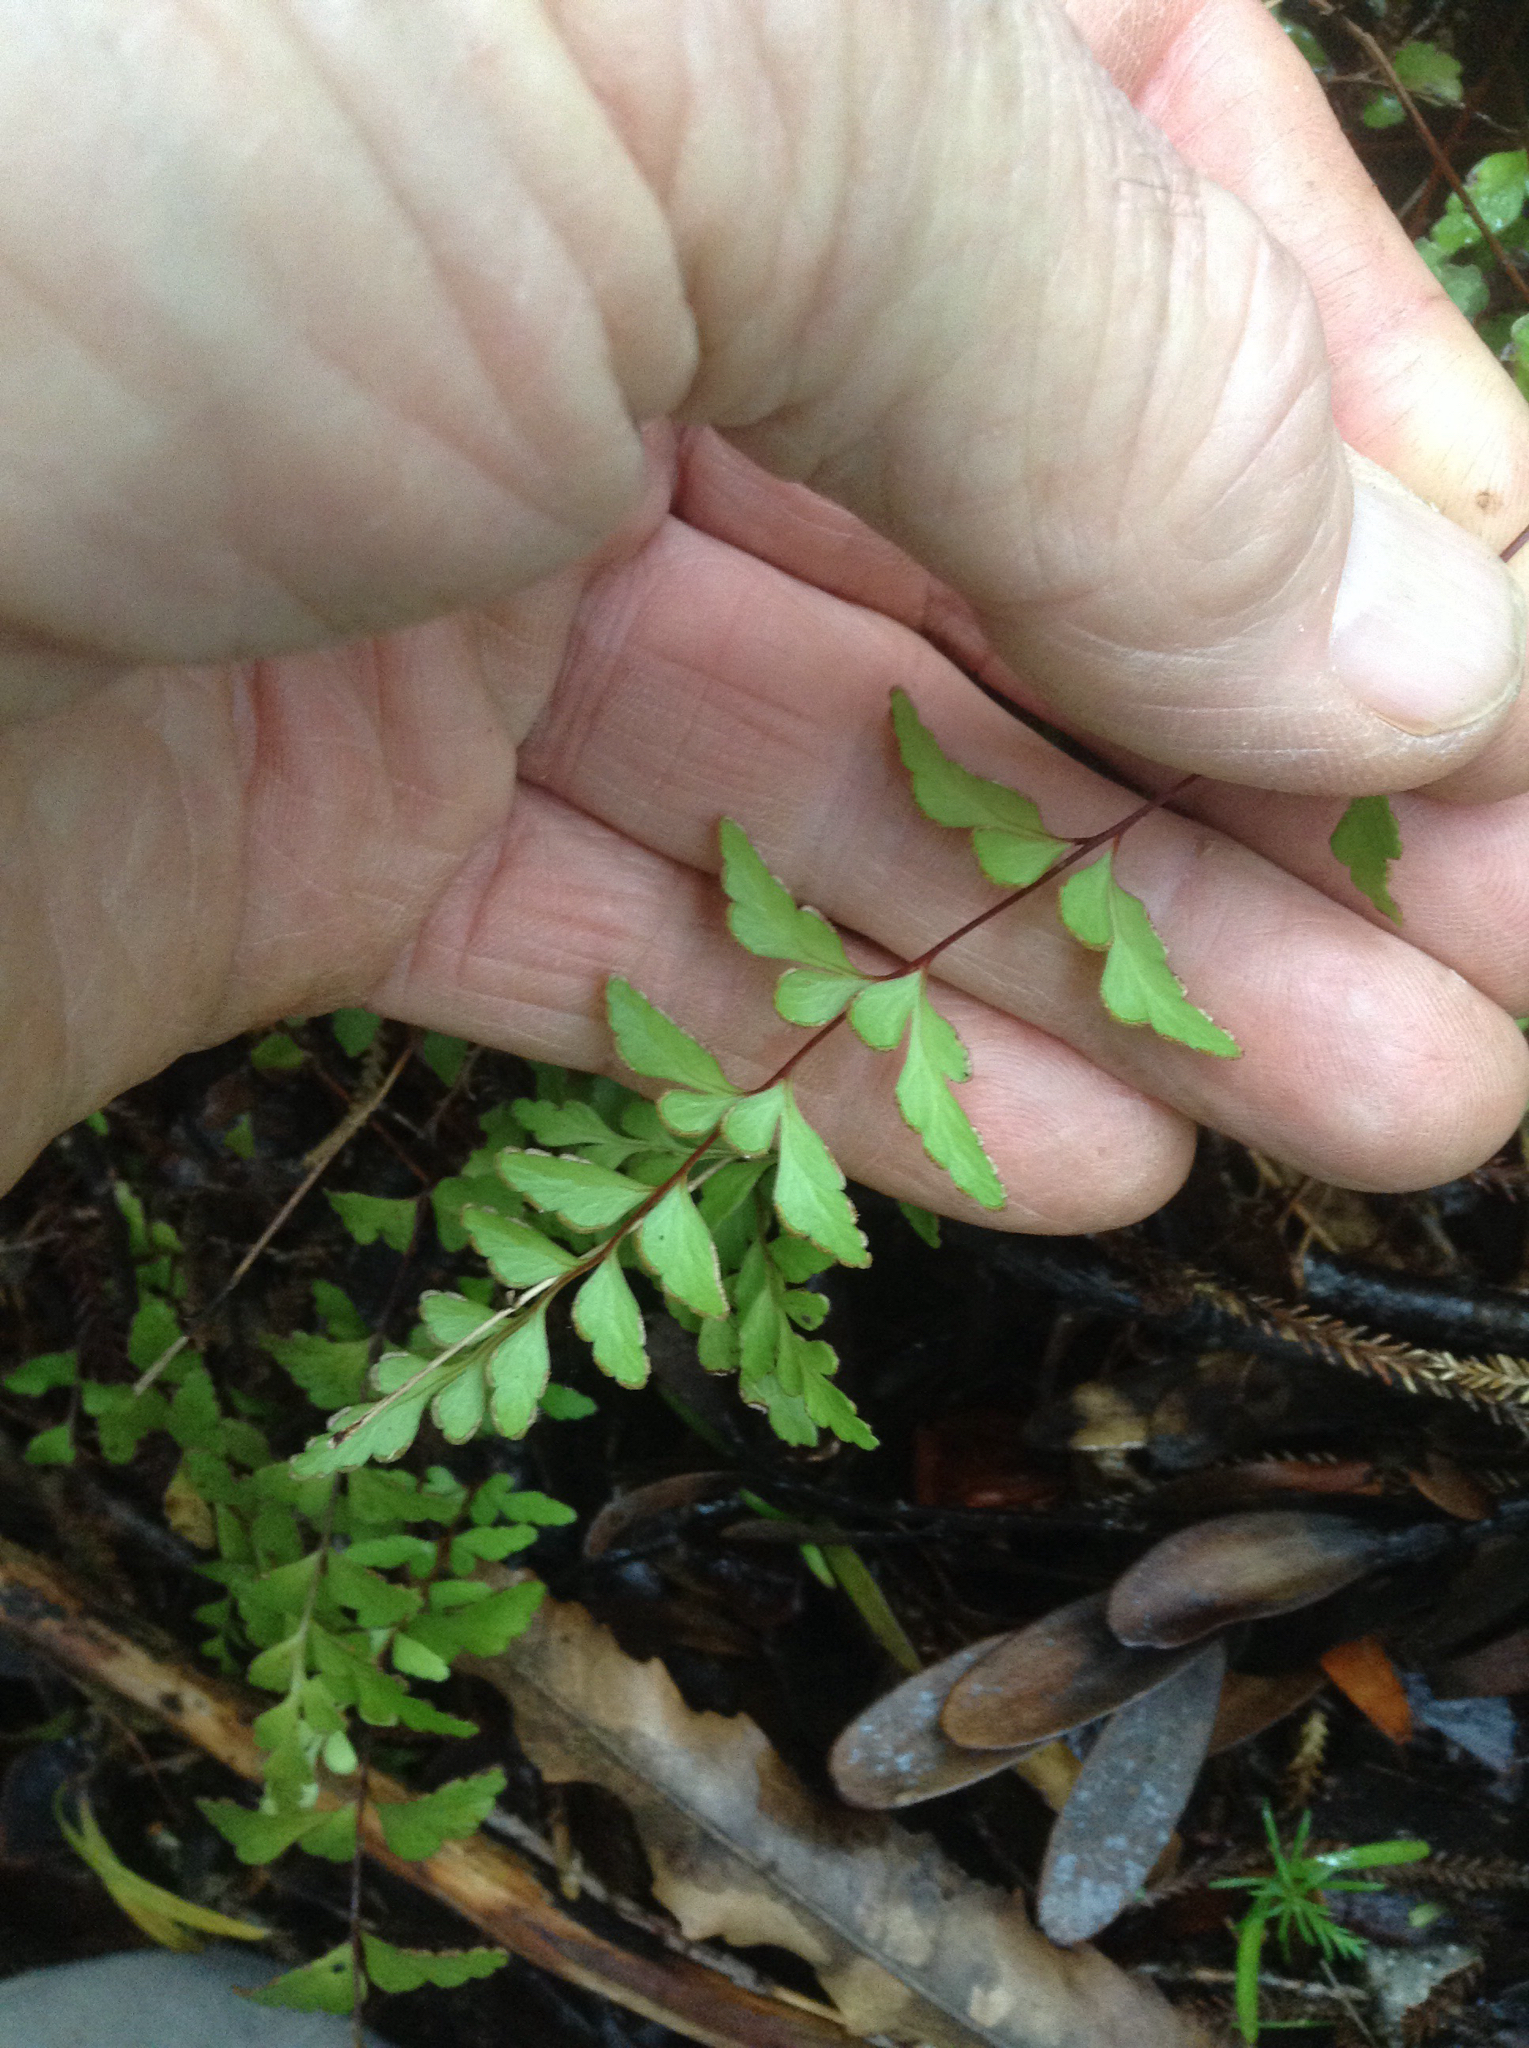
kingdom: Plantae
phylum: Tracheophyta
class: Polypodiopsida
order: Polypodiales
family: Lindsaeaceae
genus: Lindsaea
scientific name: Lindsaea trichomanoides
